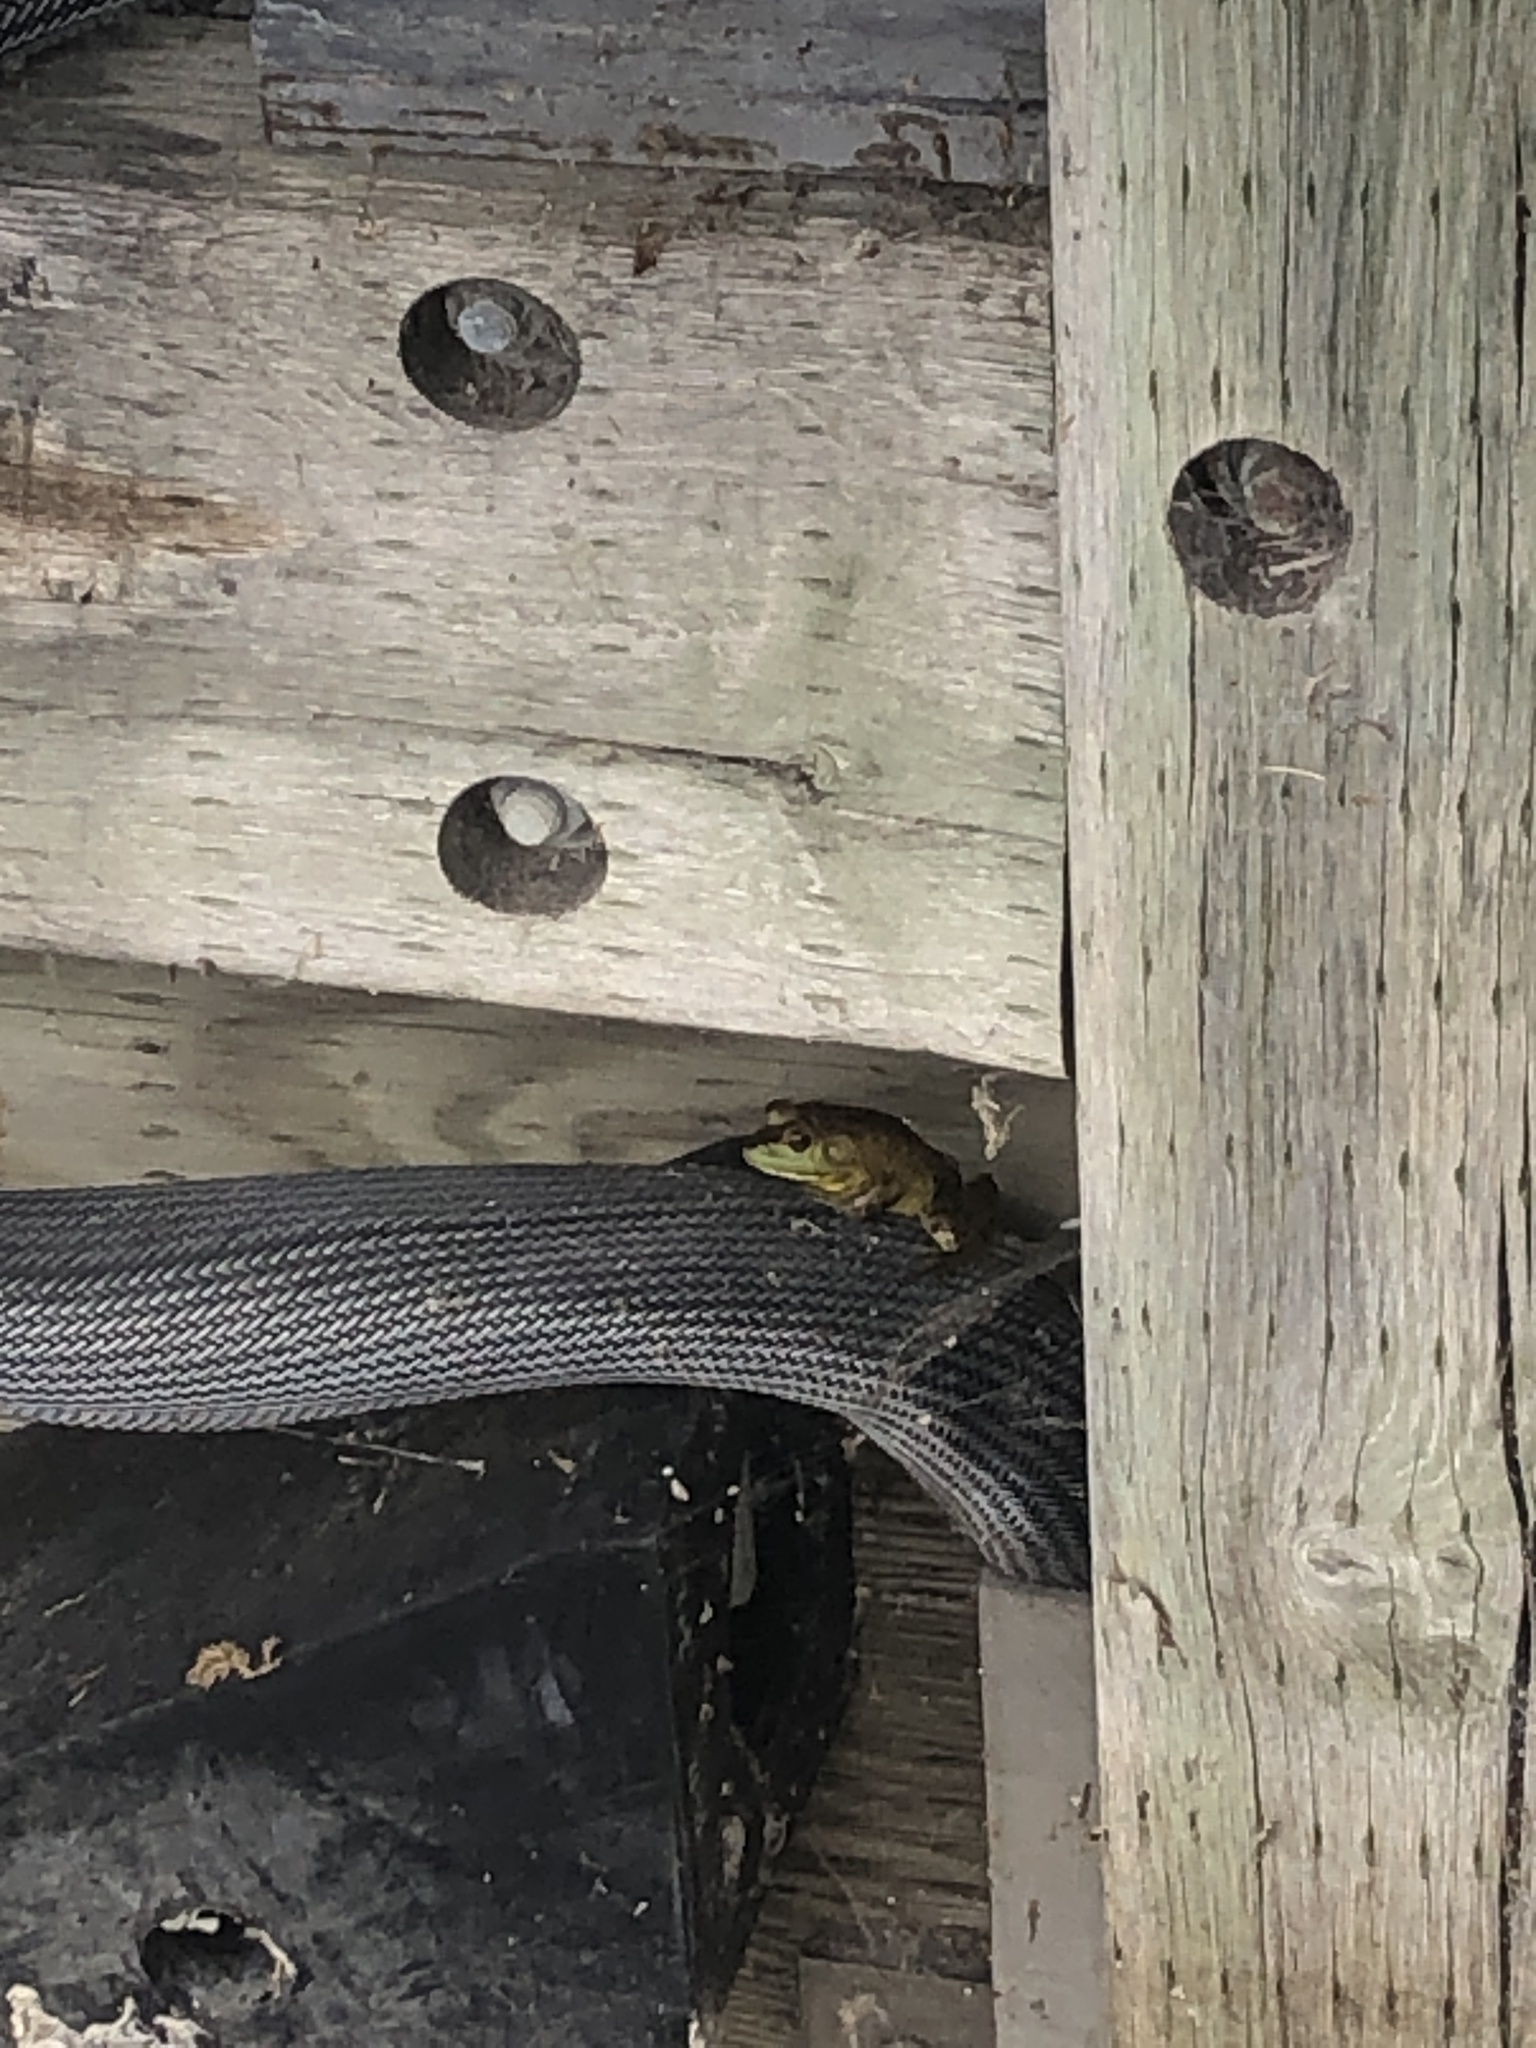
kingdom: Animalia
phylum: Chordata
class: Amphibia
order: Anura
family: Ranidae
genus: Lithobates
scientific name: Lithobates catesbeianus
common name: American bullfrog
